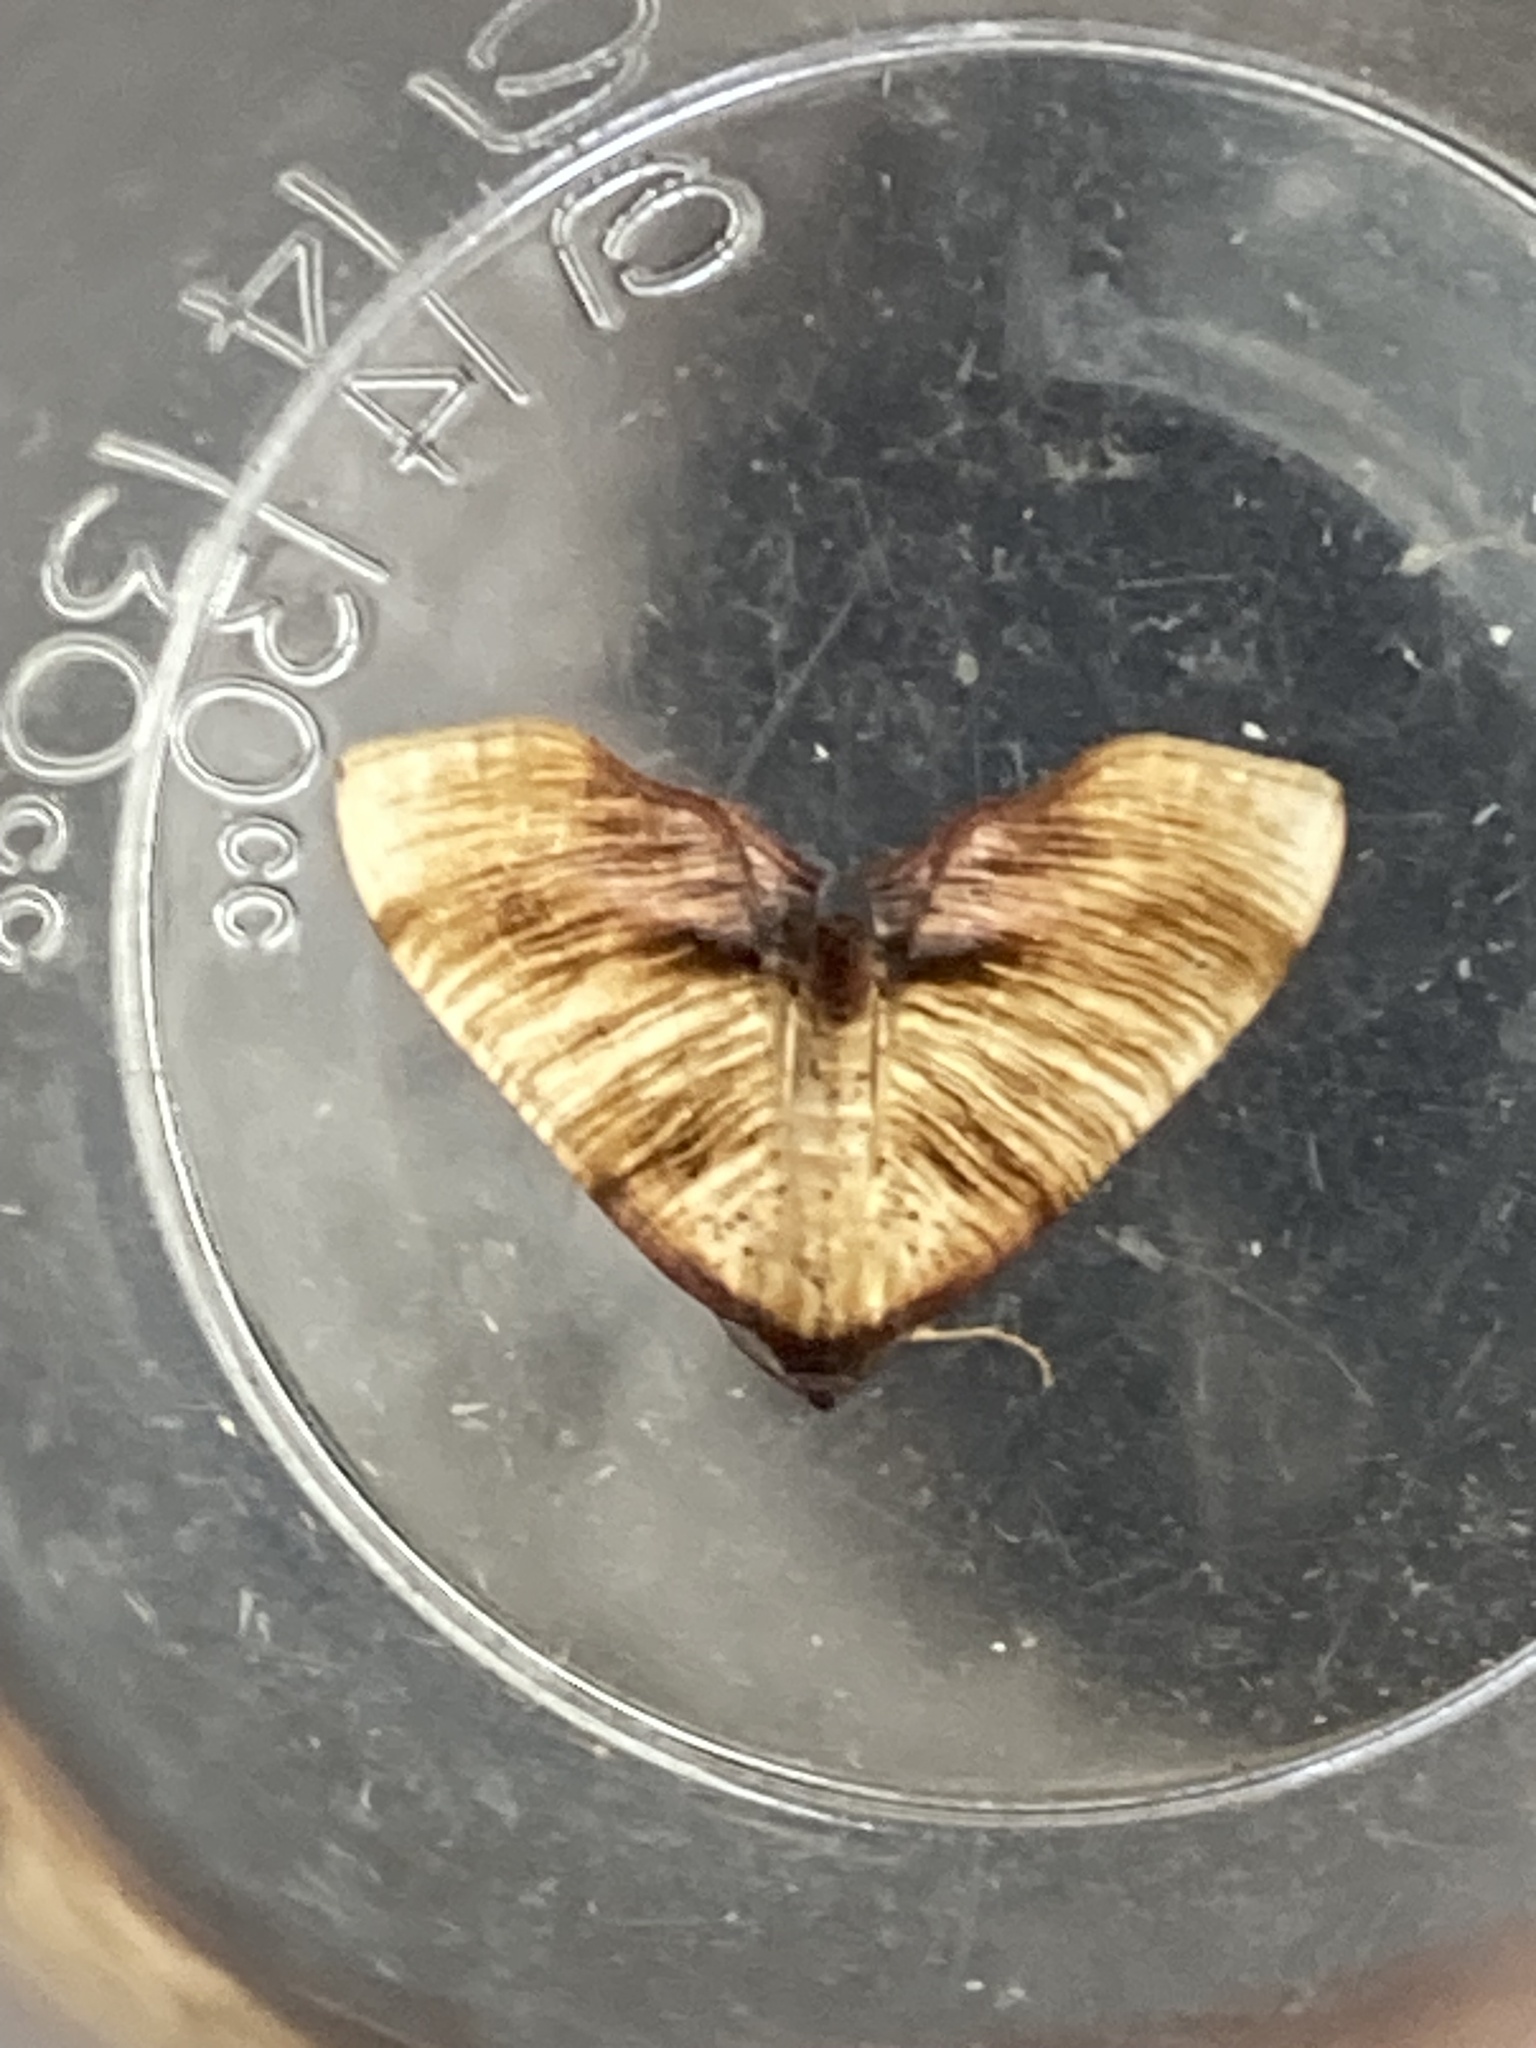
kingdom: Animalia
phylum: Arthropoda
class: Insecta
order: Lepidoptera
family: Geometridae
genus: Plagodis
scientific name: Plagodis dolabraria
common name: Scorched wing
